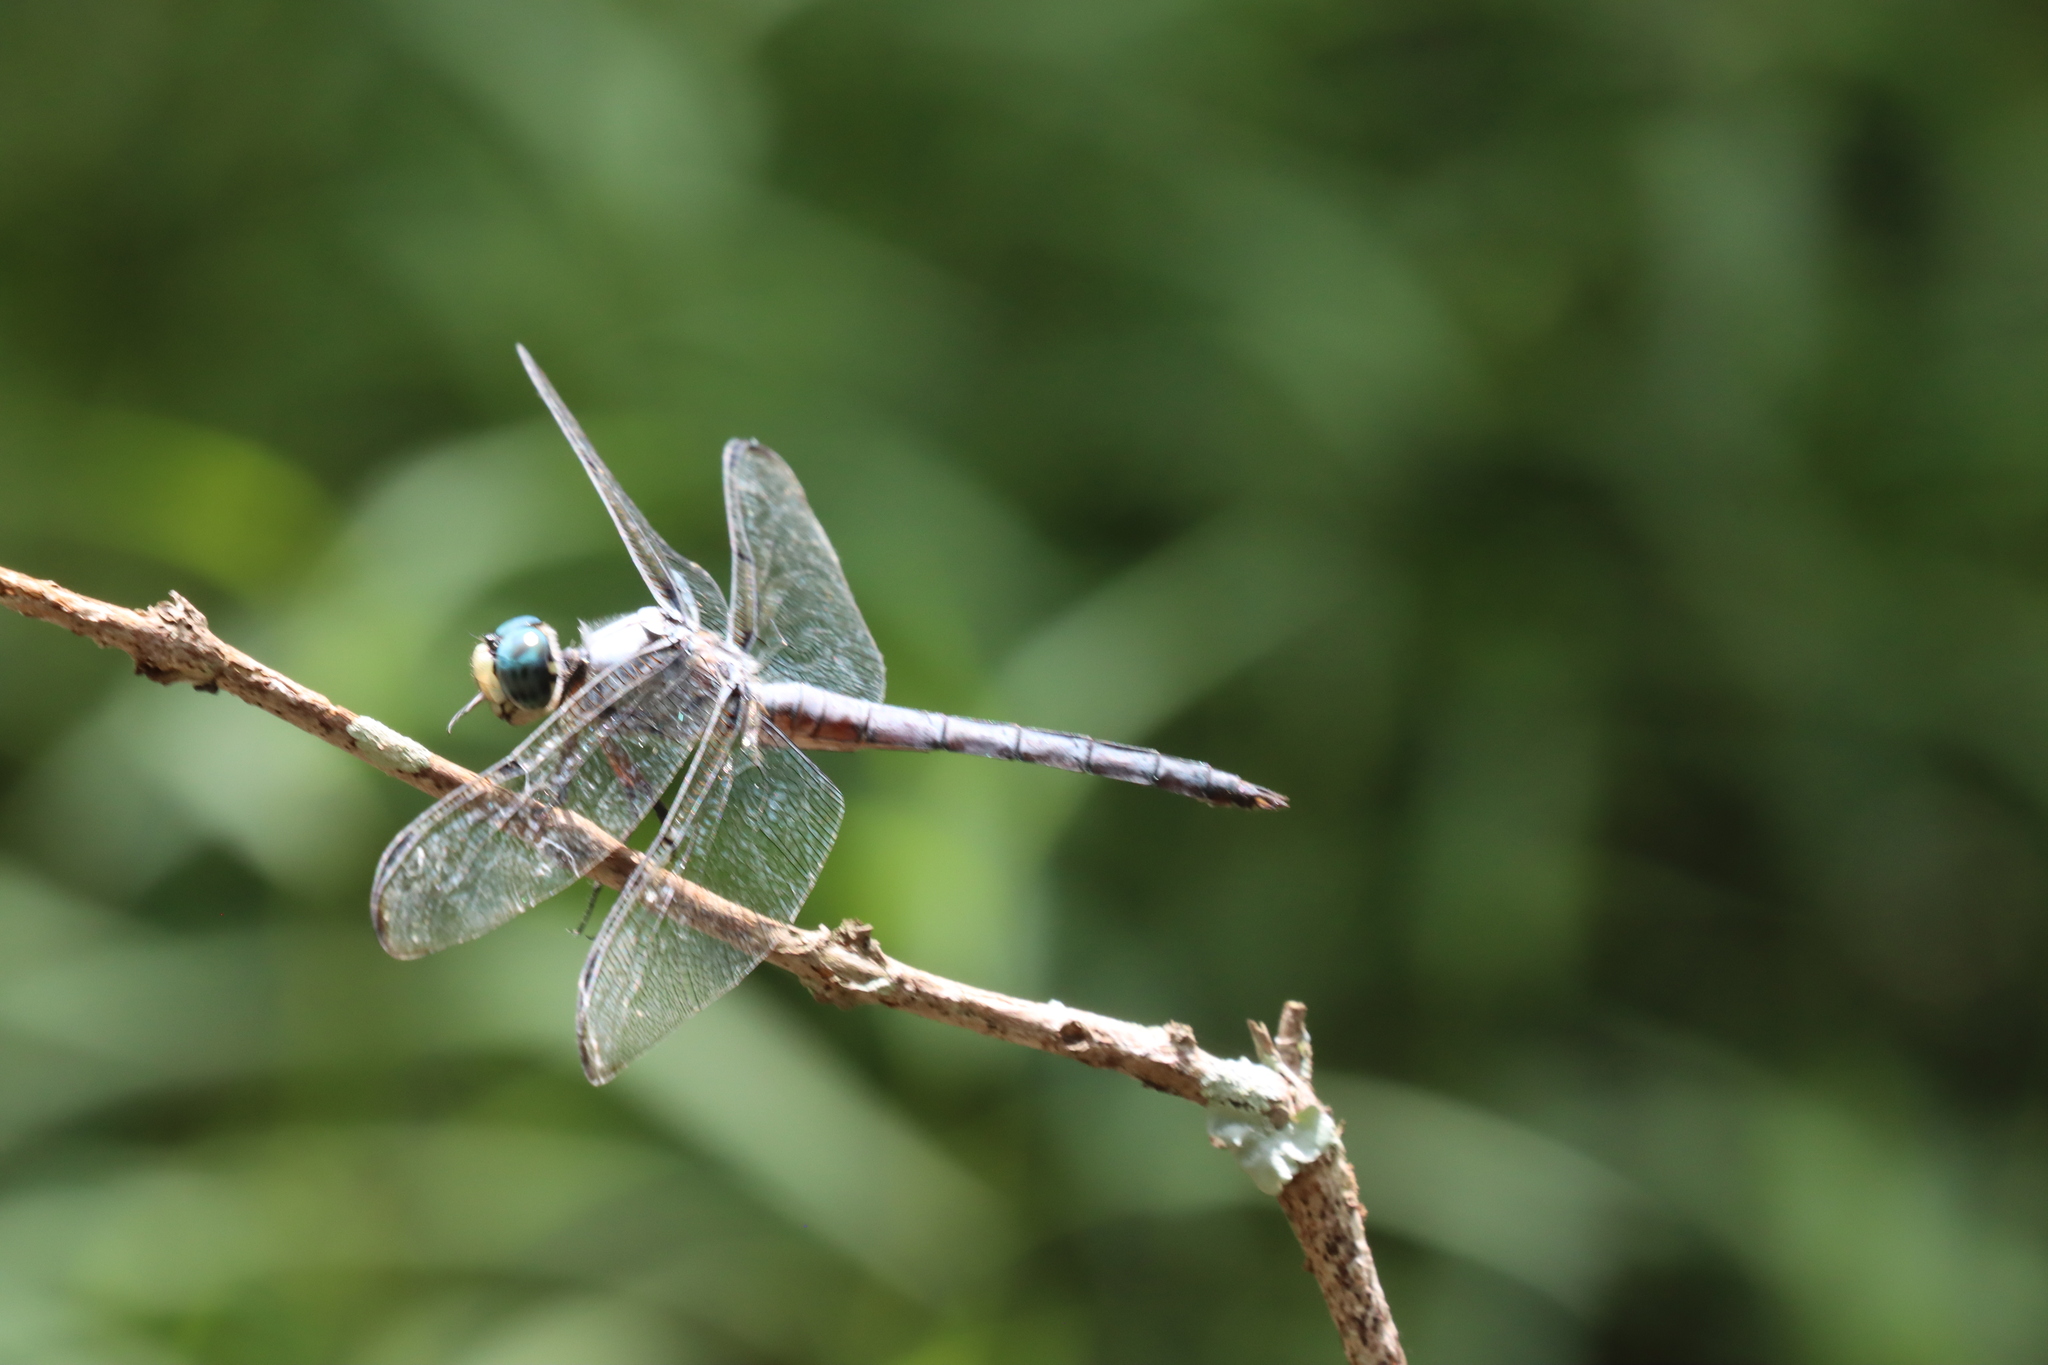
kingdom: Animalia
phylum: Arthropoda
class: Insecta
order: Odonata
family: Libellulidae
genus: Libellula
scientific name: Libellula vibrans
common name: Great blue skimmer
